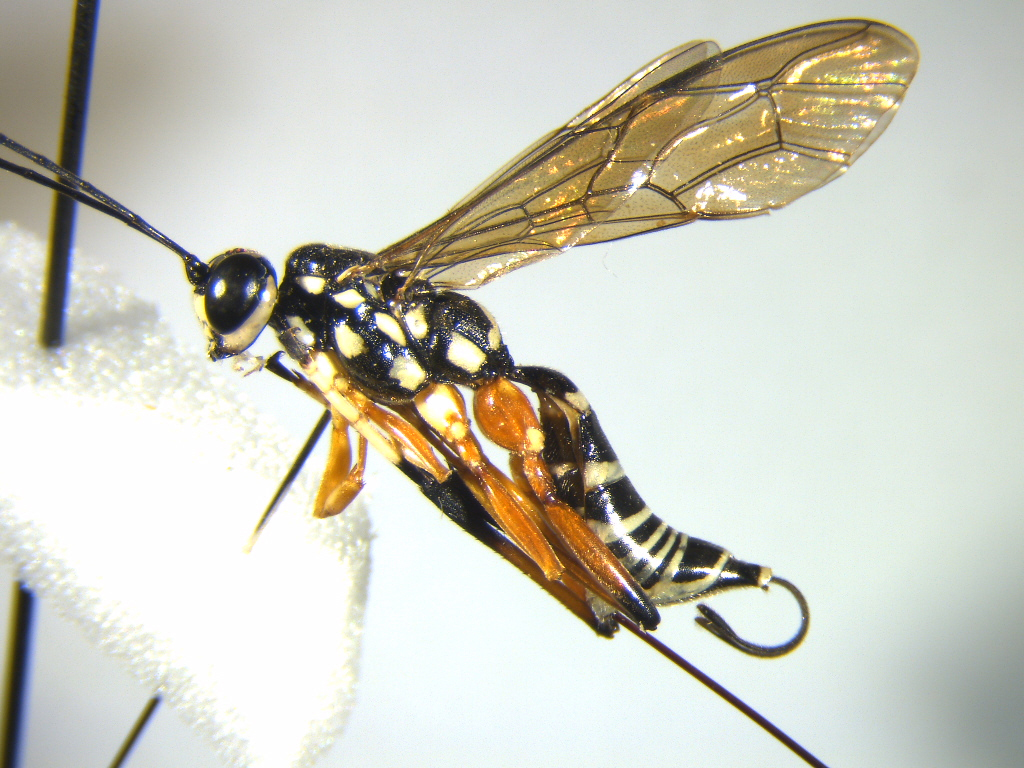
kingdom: Animalia
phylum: Arthropoda
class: Insecta
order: Hymenoptera
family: Ichneumonidae
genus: Xanthocryptus
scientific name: Xanthocryptus novozealandicus
